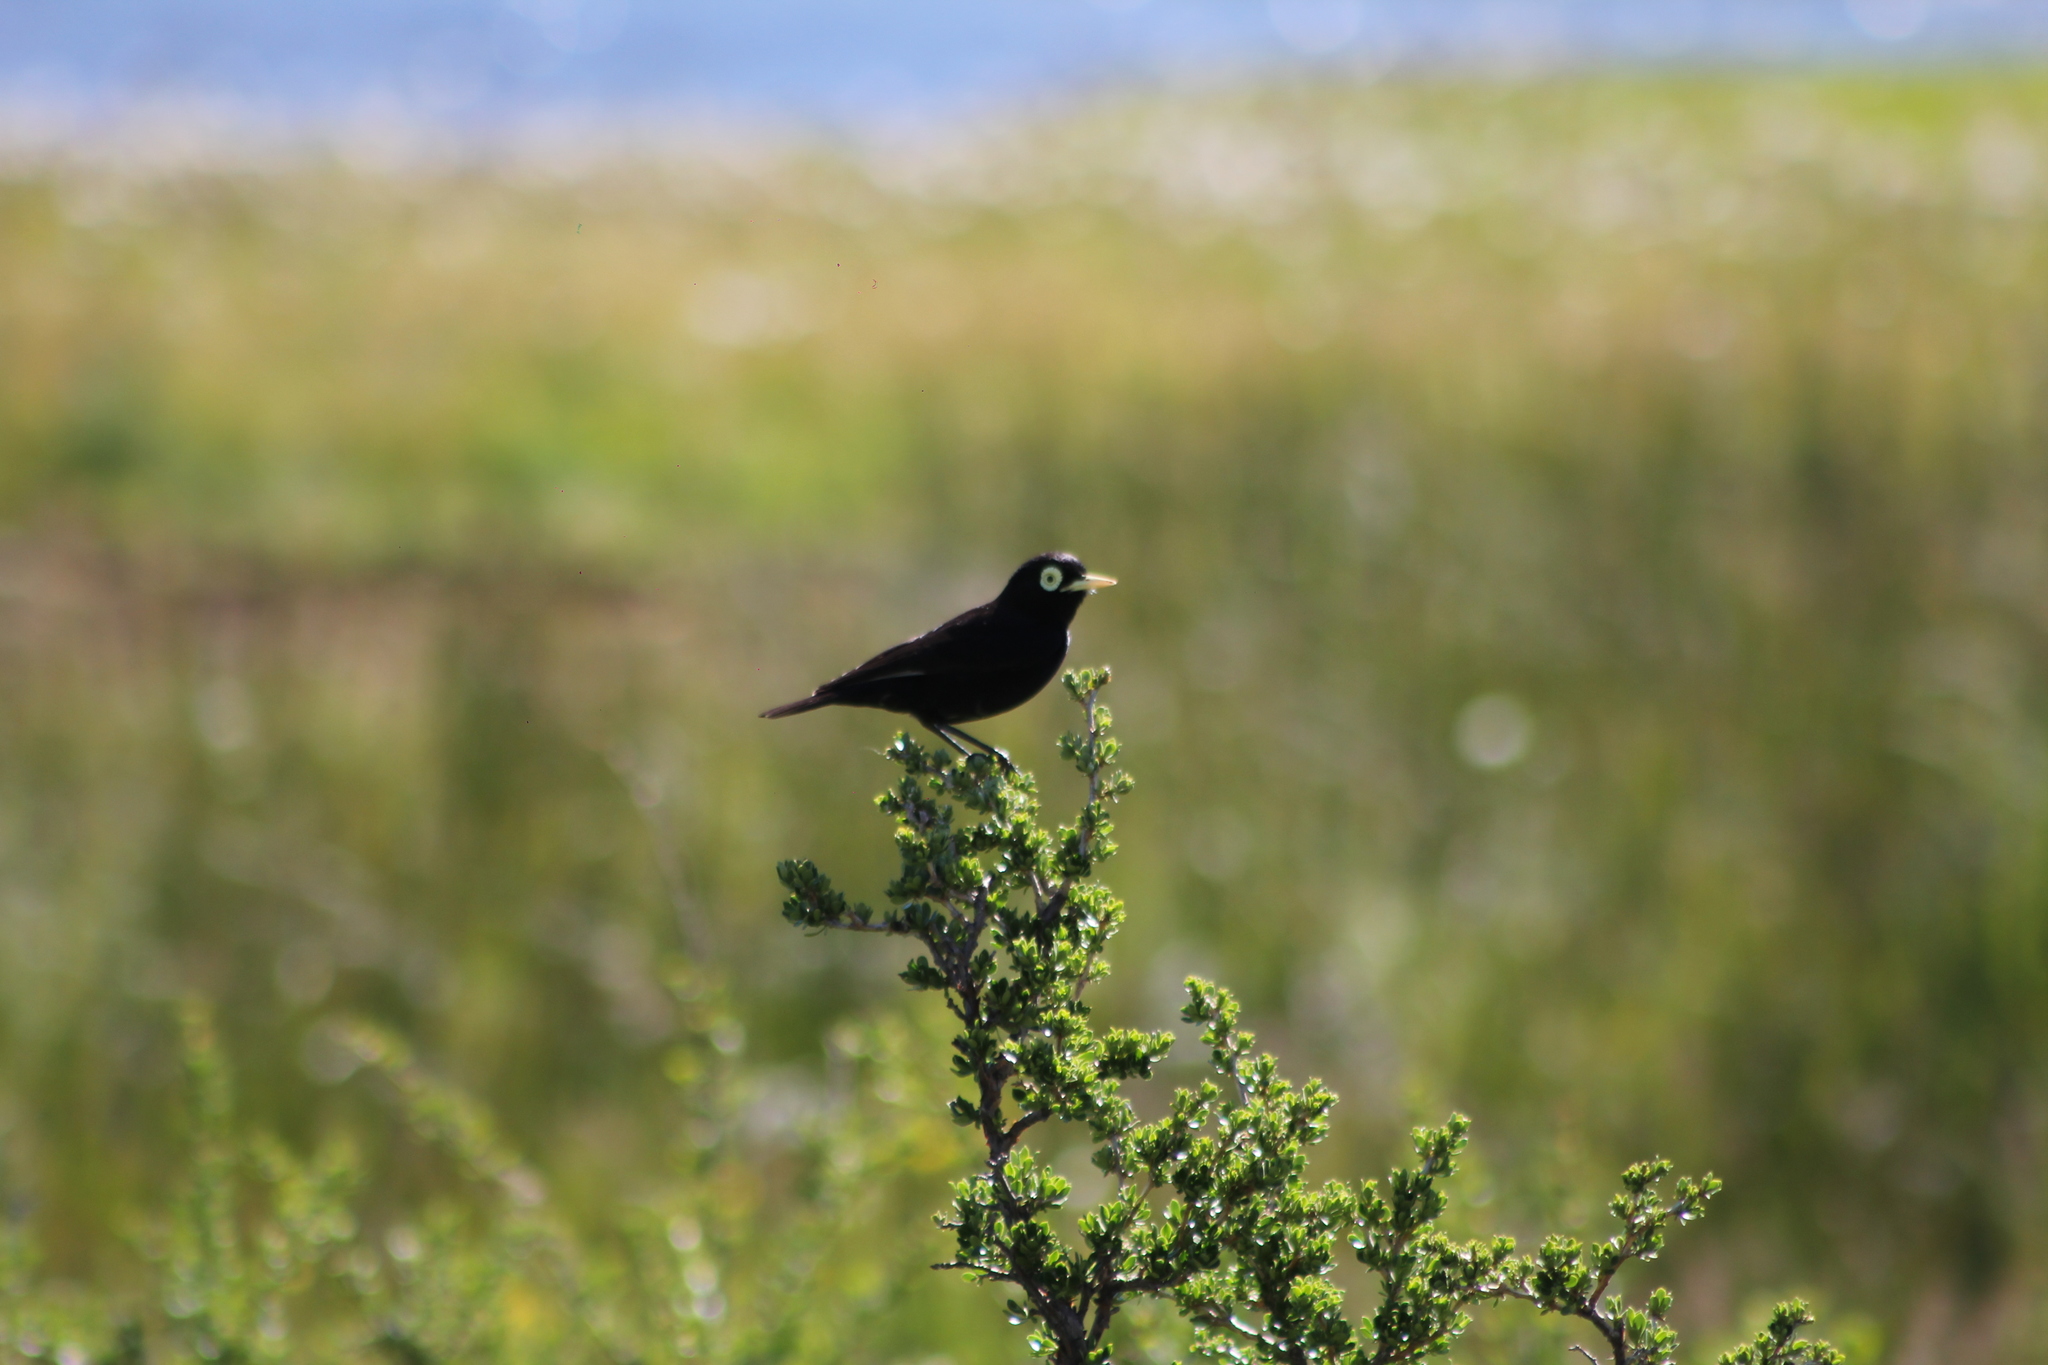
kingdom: Animalia
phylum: Chordata
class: Aves
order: Passeriformes
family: Tyrannidae
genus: Hymenops
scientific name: Hymenops perspicillatus
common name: Spectacled tyrant
